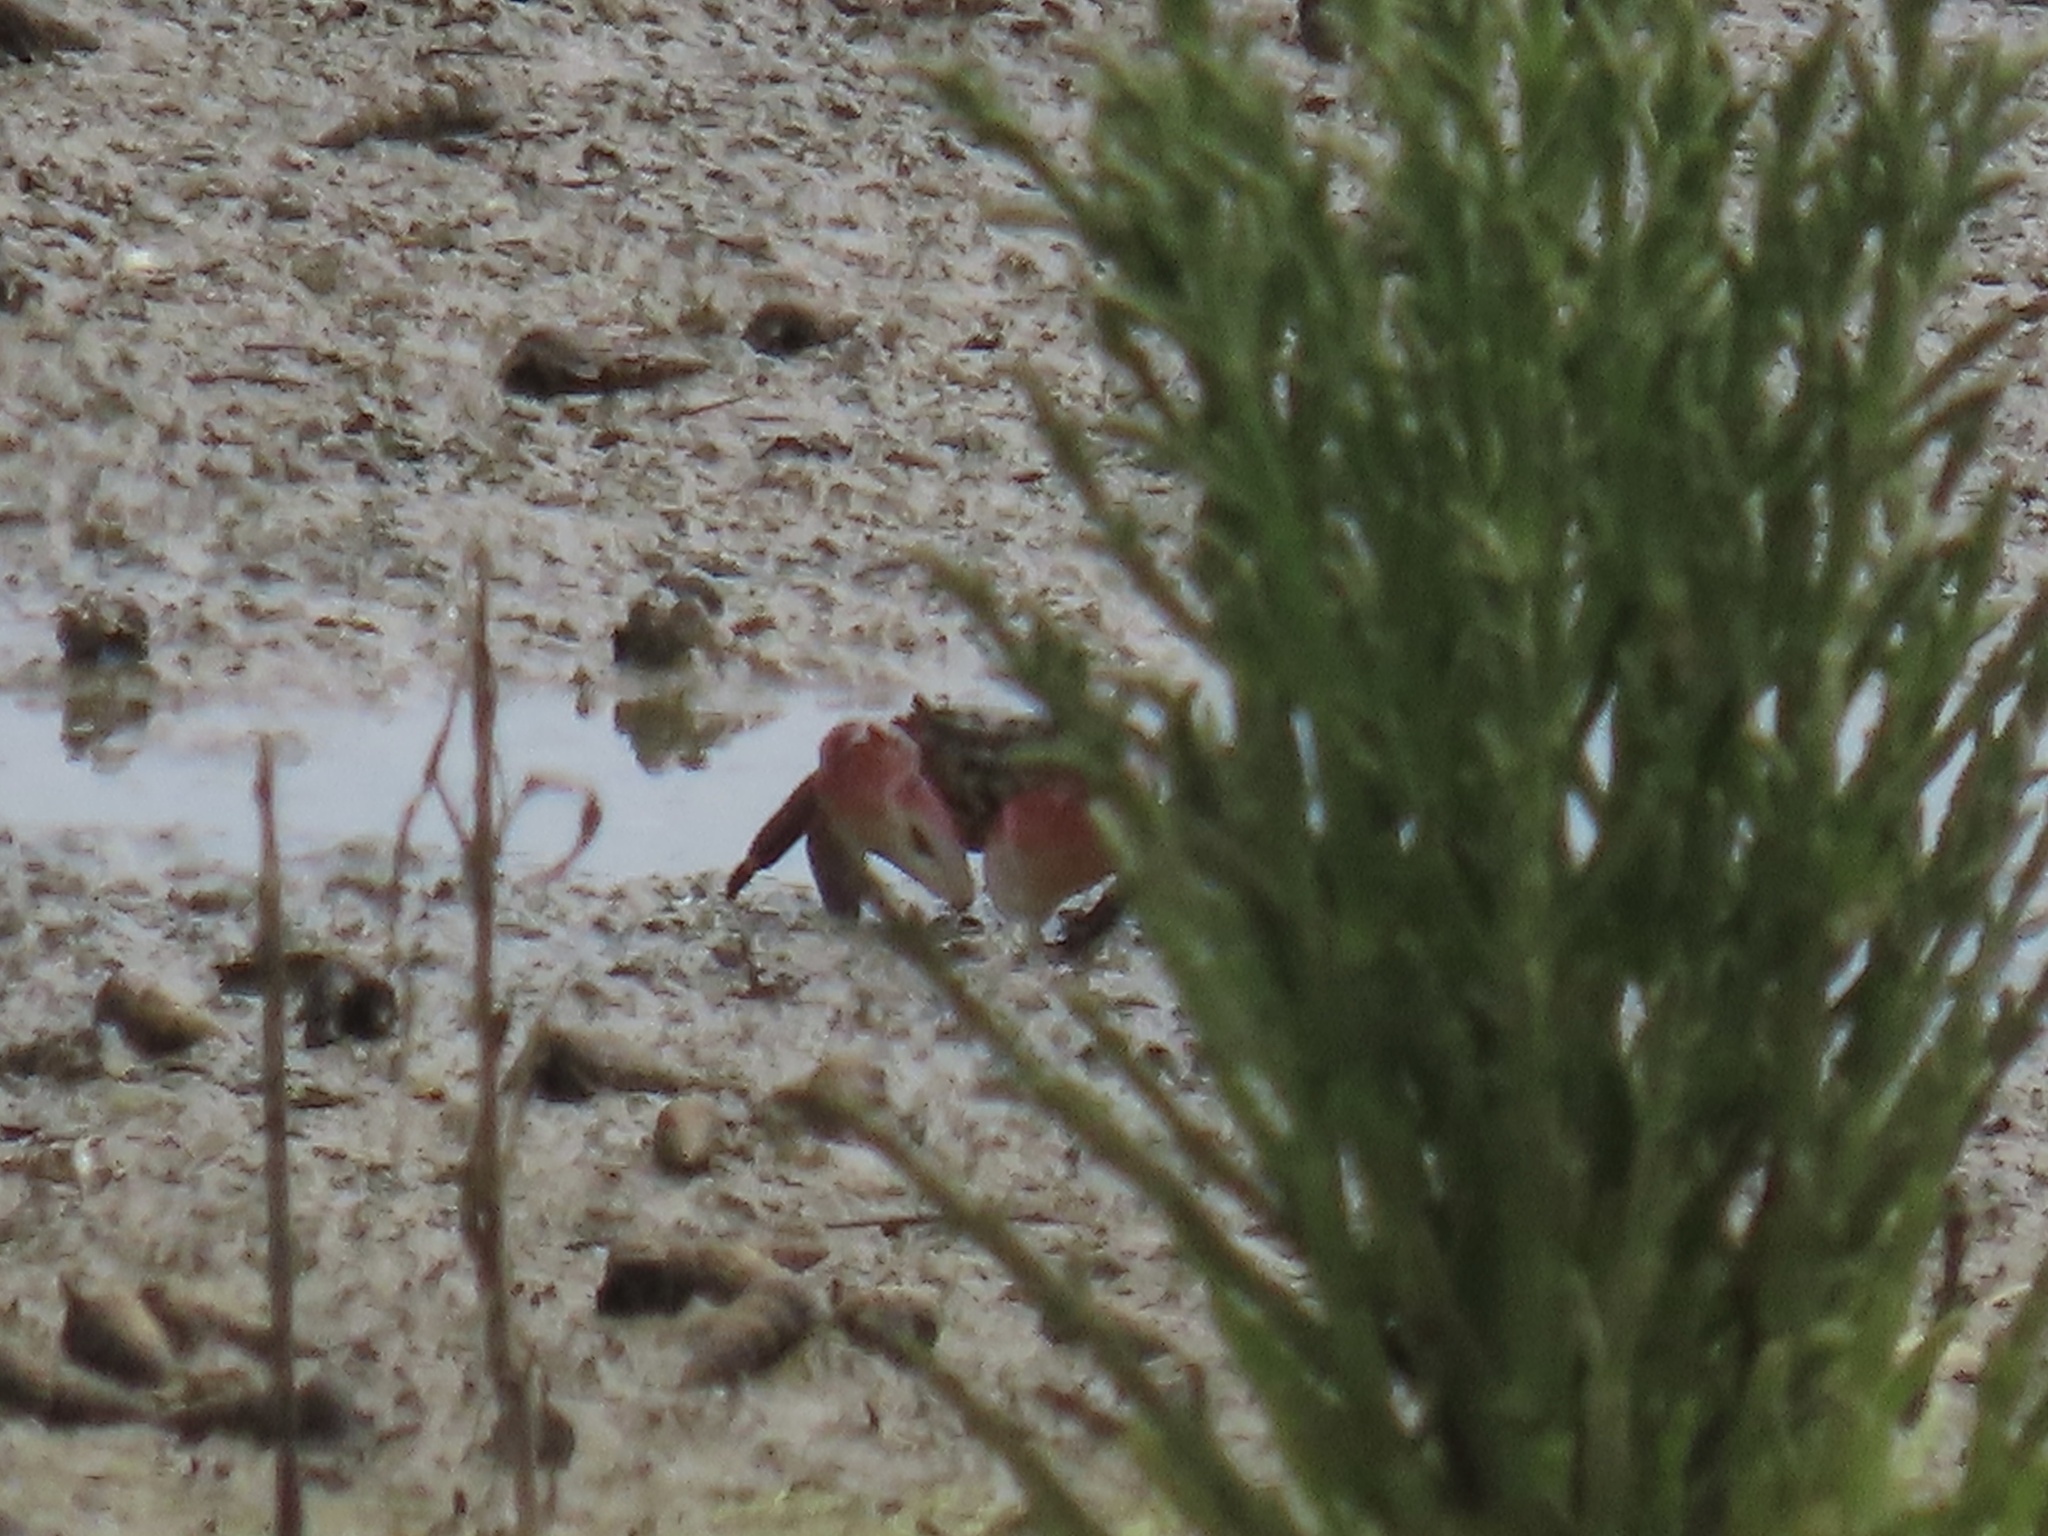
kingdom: Animalia
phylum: Arthropoda
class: Malacostraca
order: Decapoda
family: Grapsidae
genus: Pachygrapsus
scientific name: Pachygrapsus crassipes
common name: Striped shore crab
